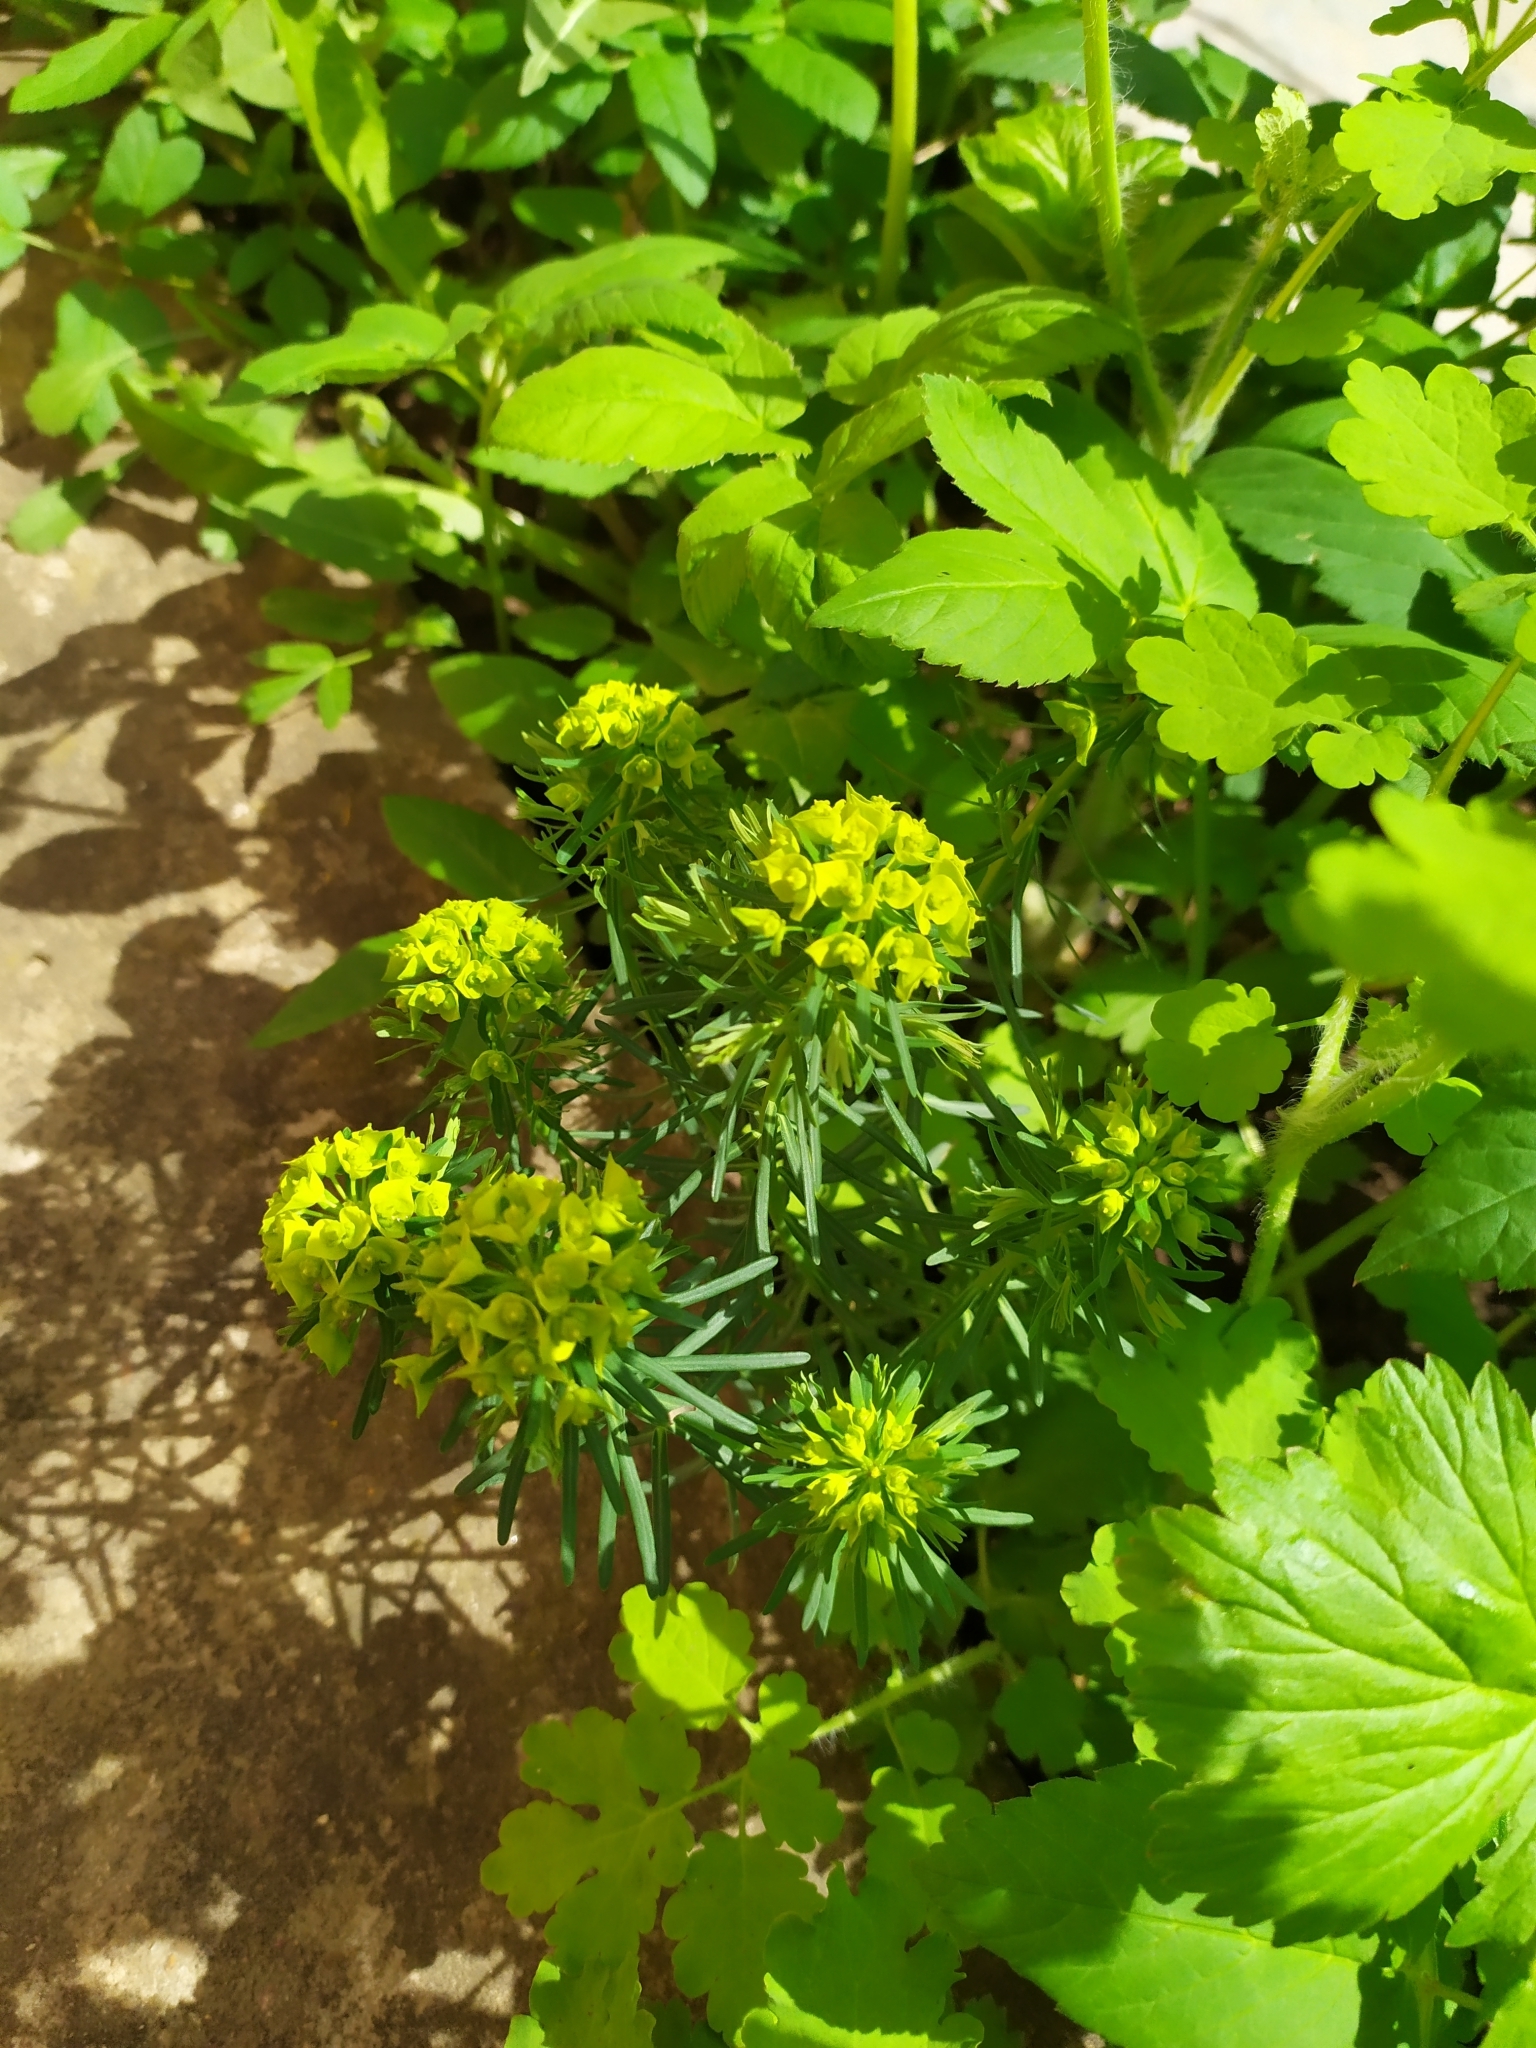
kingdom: Plantae
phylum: Tracheophyta
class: Magnoliopsida
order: Malpighiales
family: Euphorbiaceae
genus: Euphorbia
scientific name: Euphorbia cyparissias
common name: Cypress spurge
